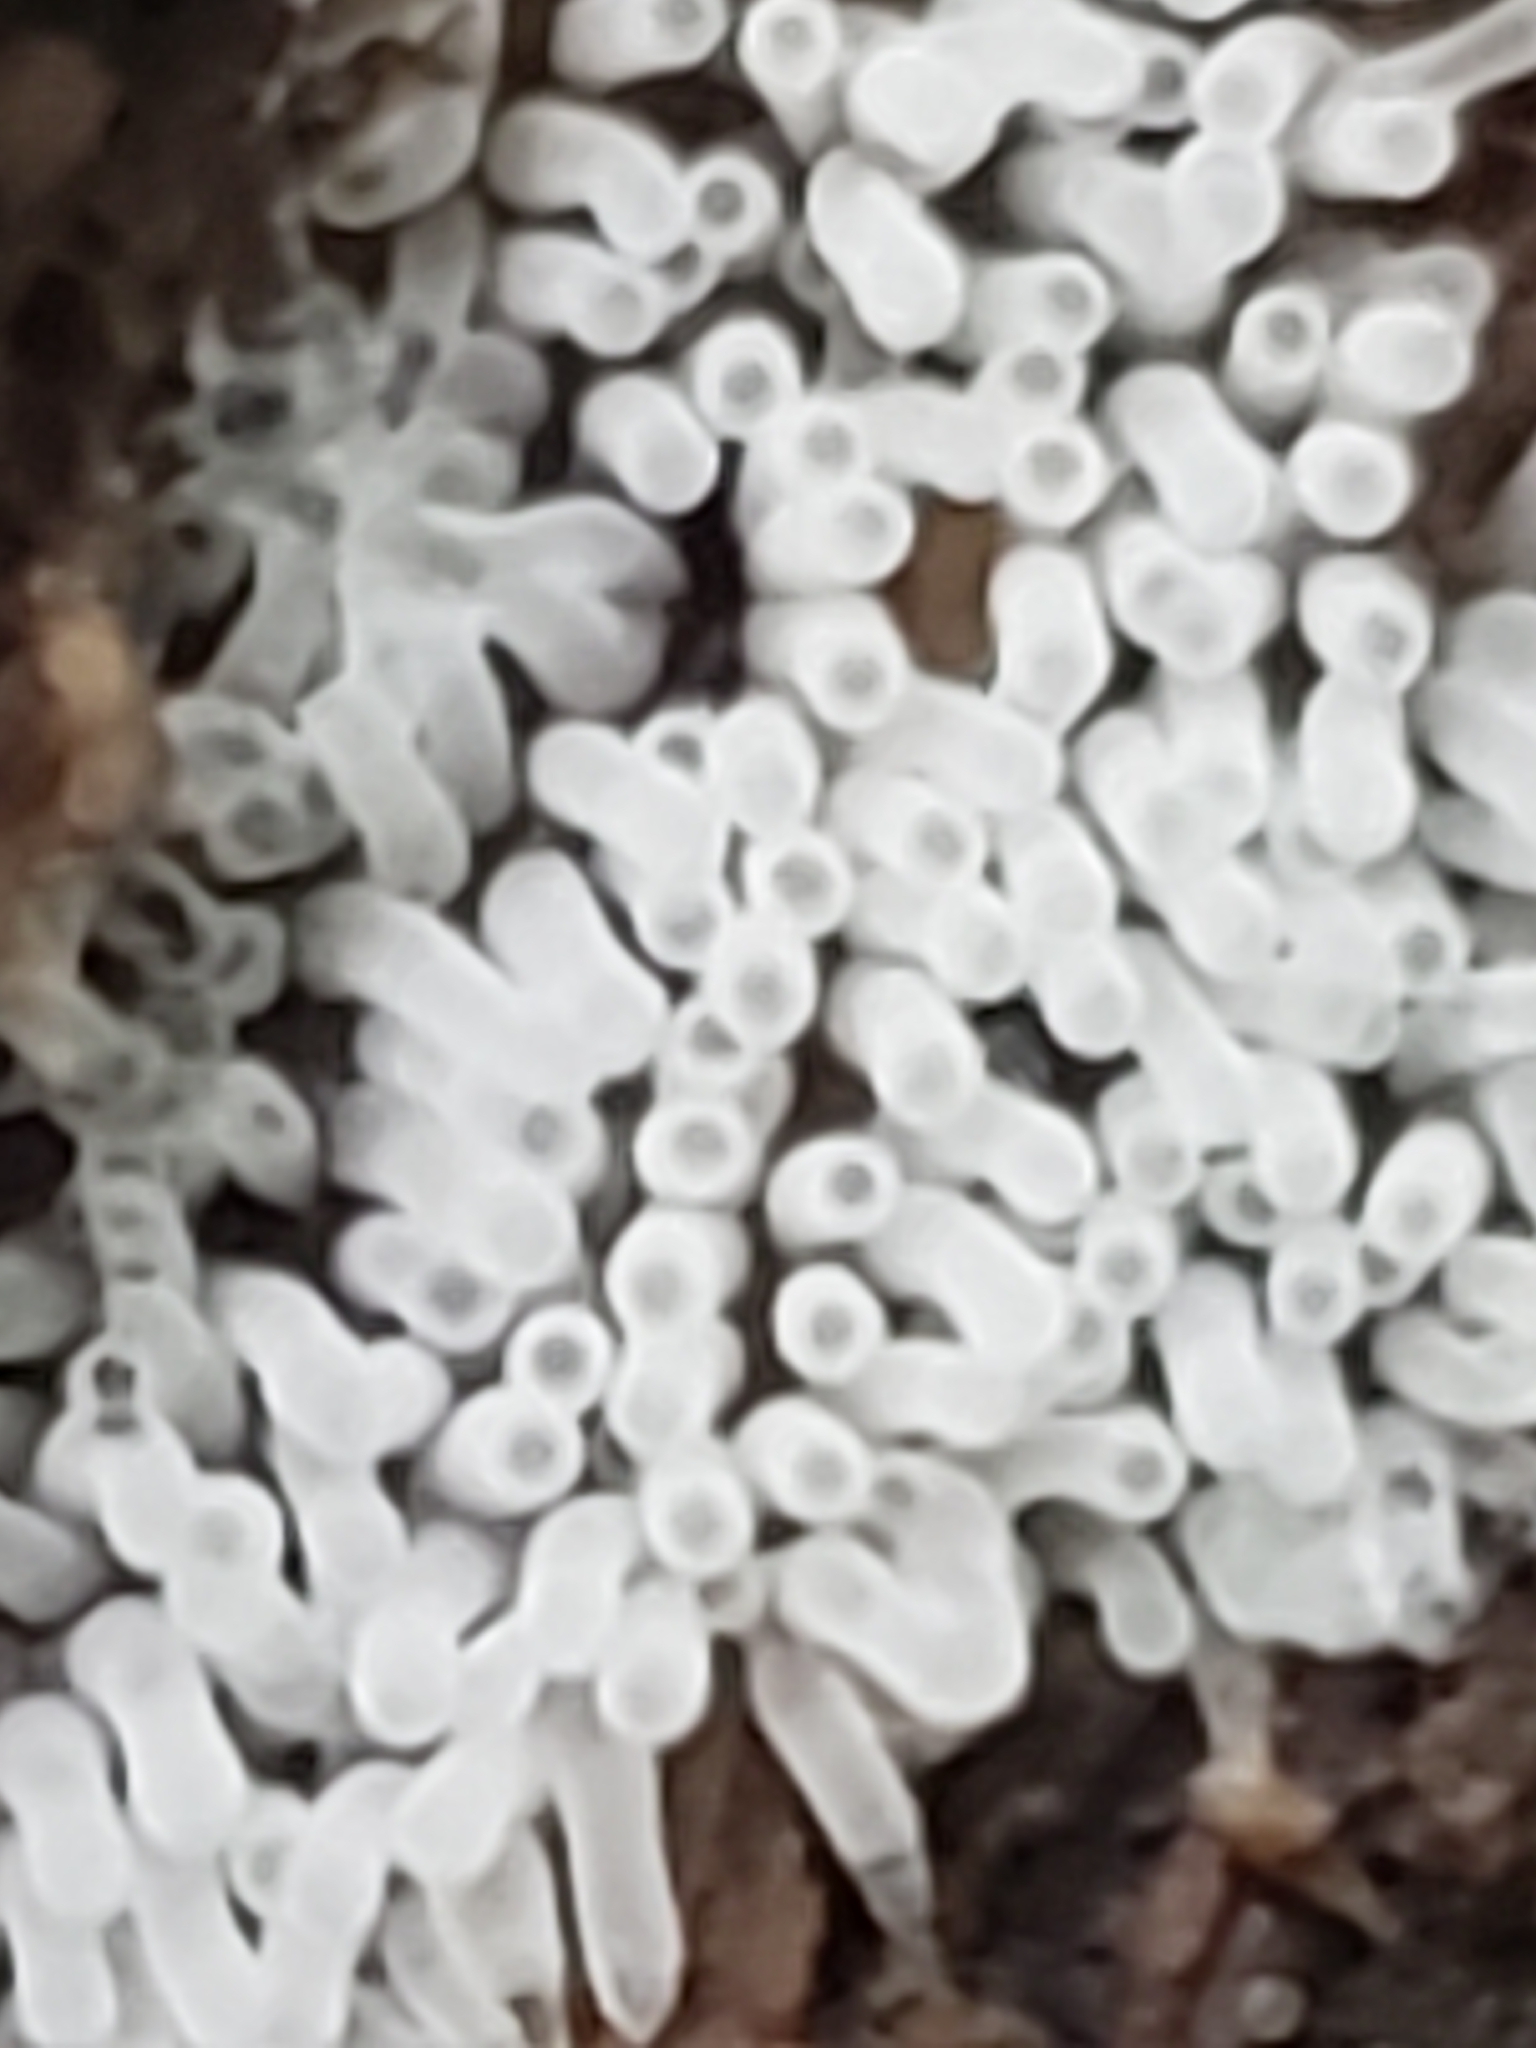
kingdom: Protozoa
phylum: Mycetozoa
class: Protosteliomycetes
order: Ceratiomyxales
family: Ceratiomyxaceae
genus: Ceratiomyxa
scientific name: Ceratiomyxa fruticulosa
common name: Honeycomb coral slime mold
